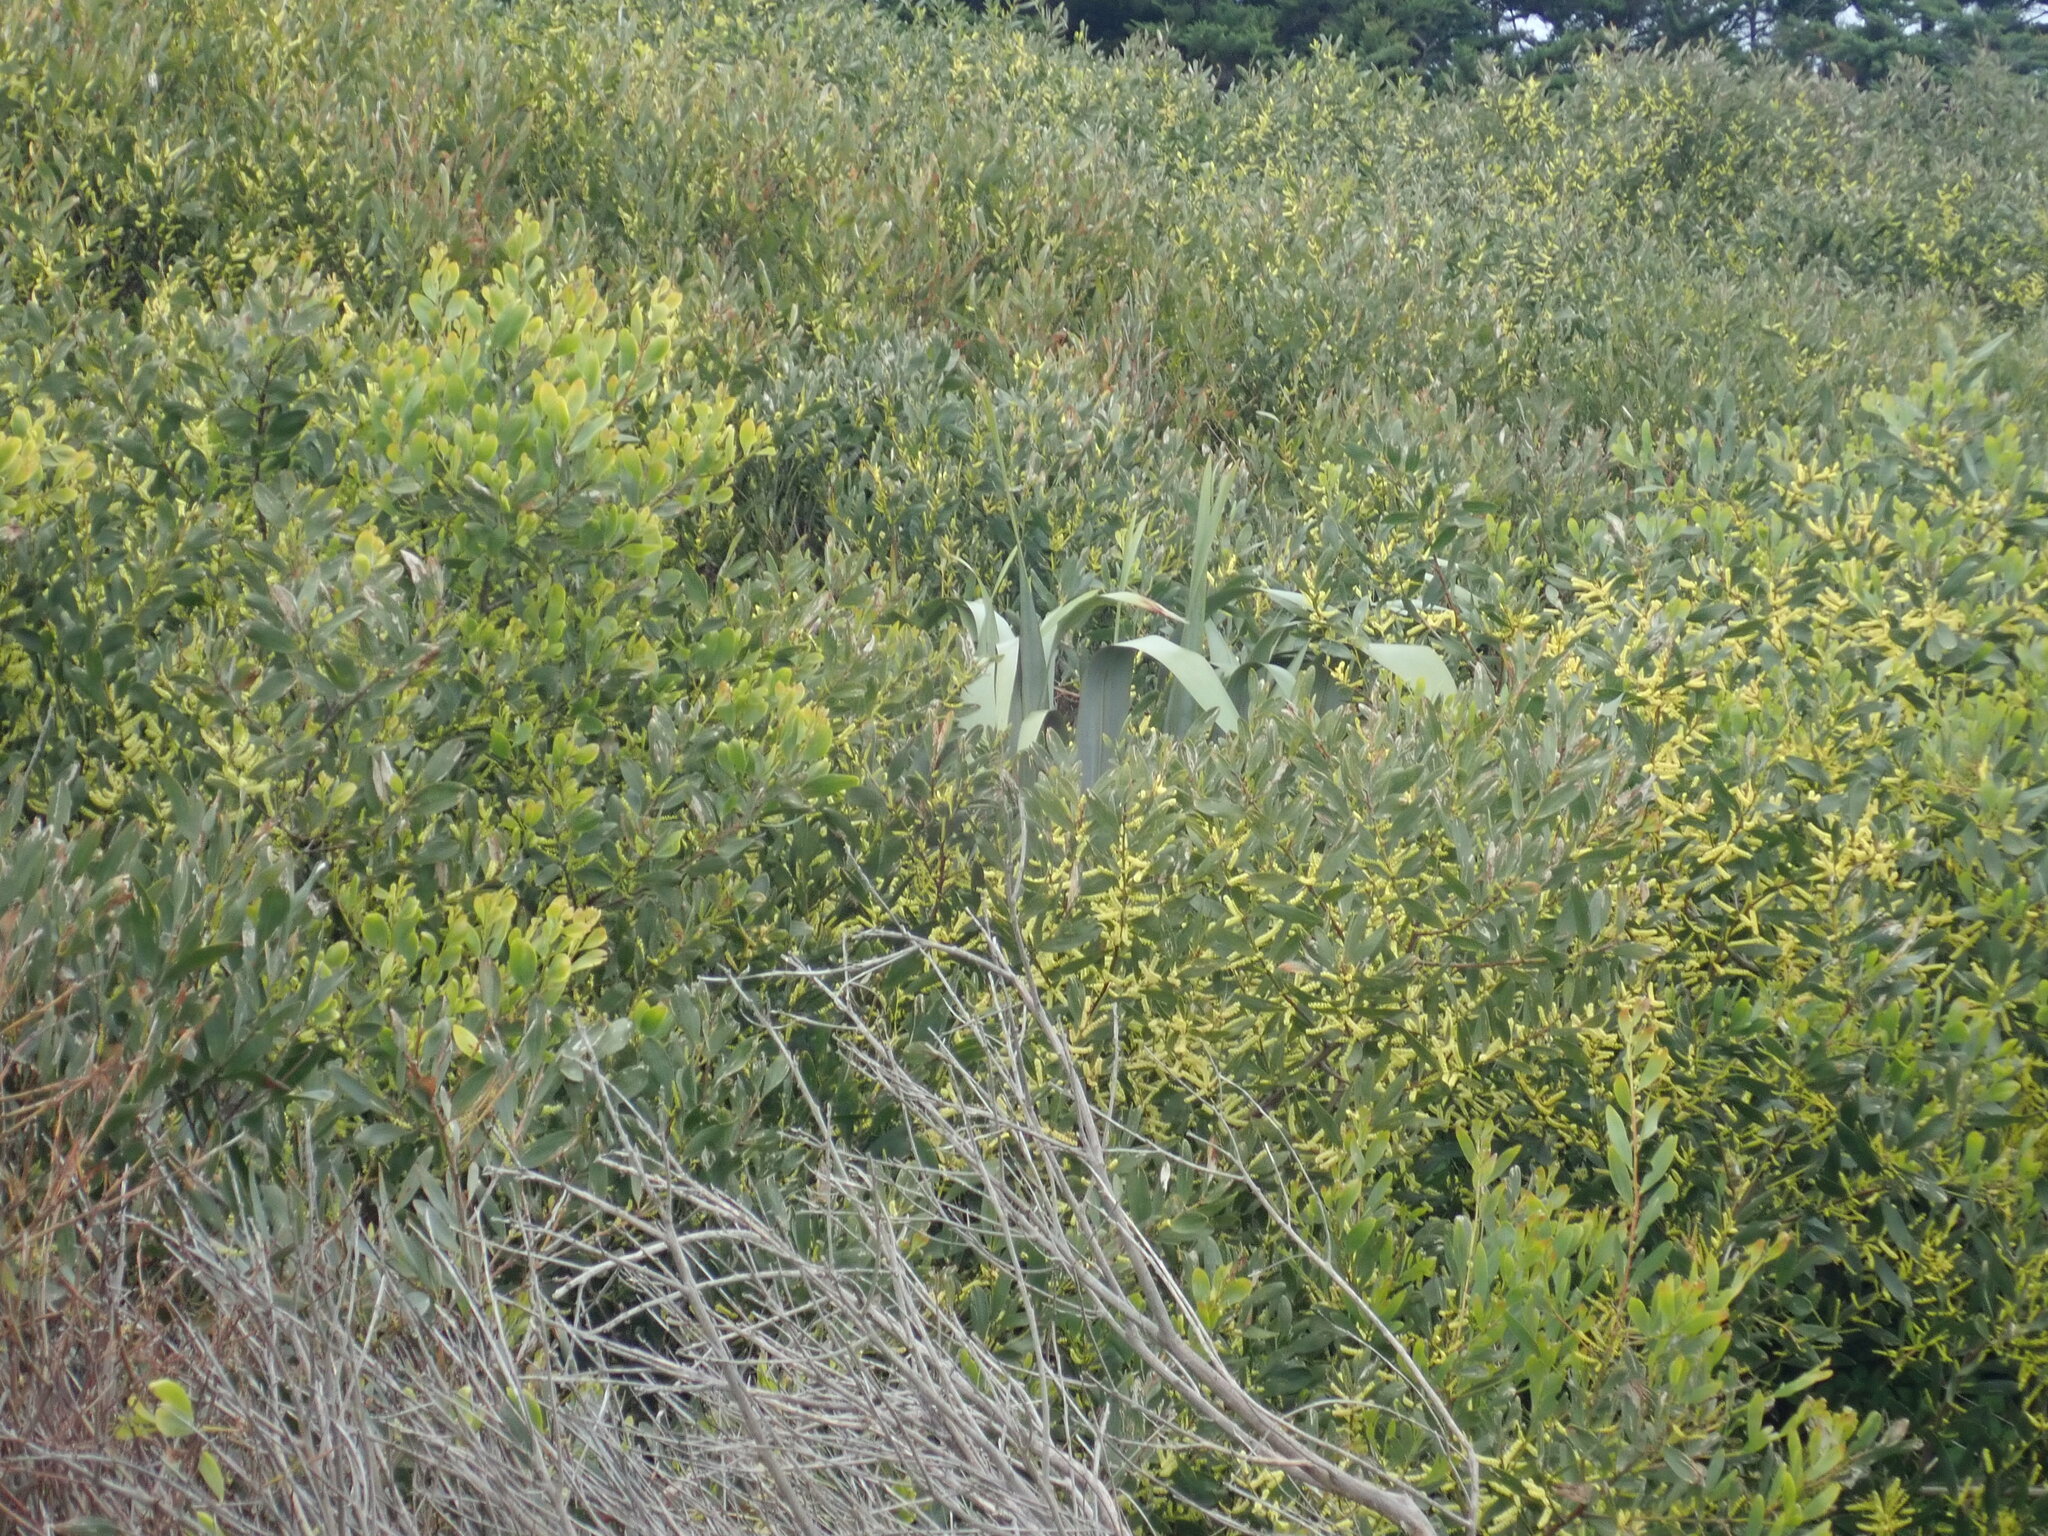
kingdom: Plantae
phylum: Tracheophyta
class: Liliopsida
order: Asparagales
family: Asphodelaceae
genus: Phormium
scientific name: Phormium tenax
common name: New zealand flax
